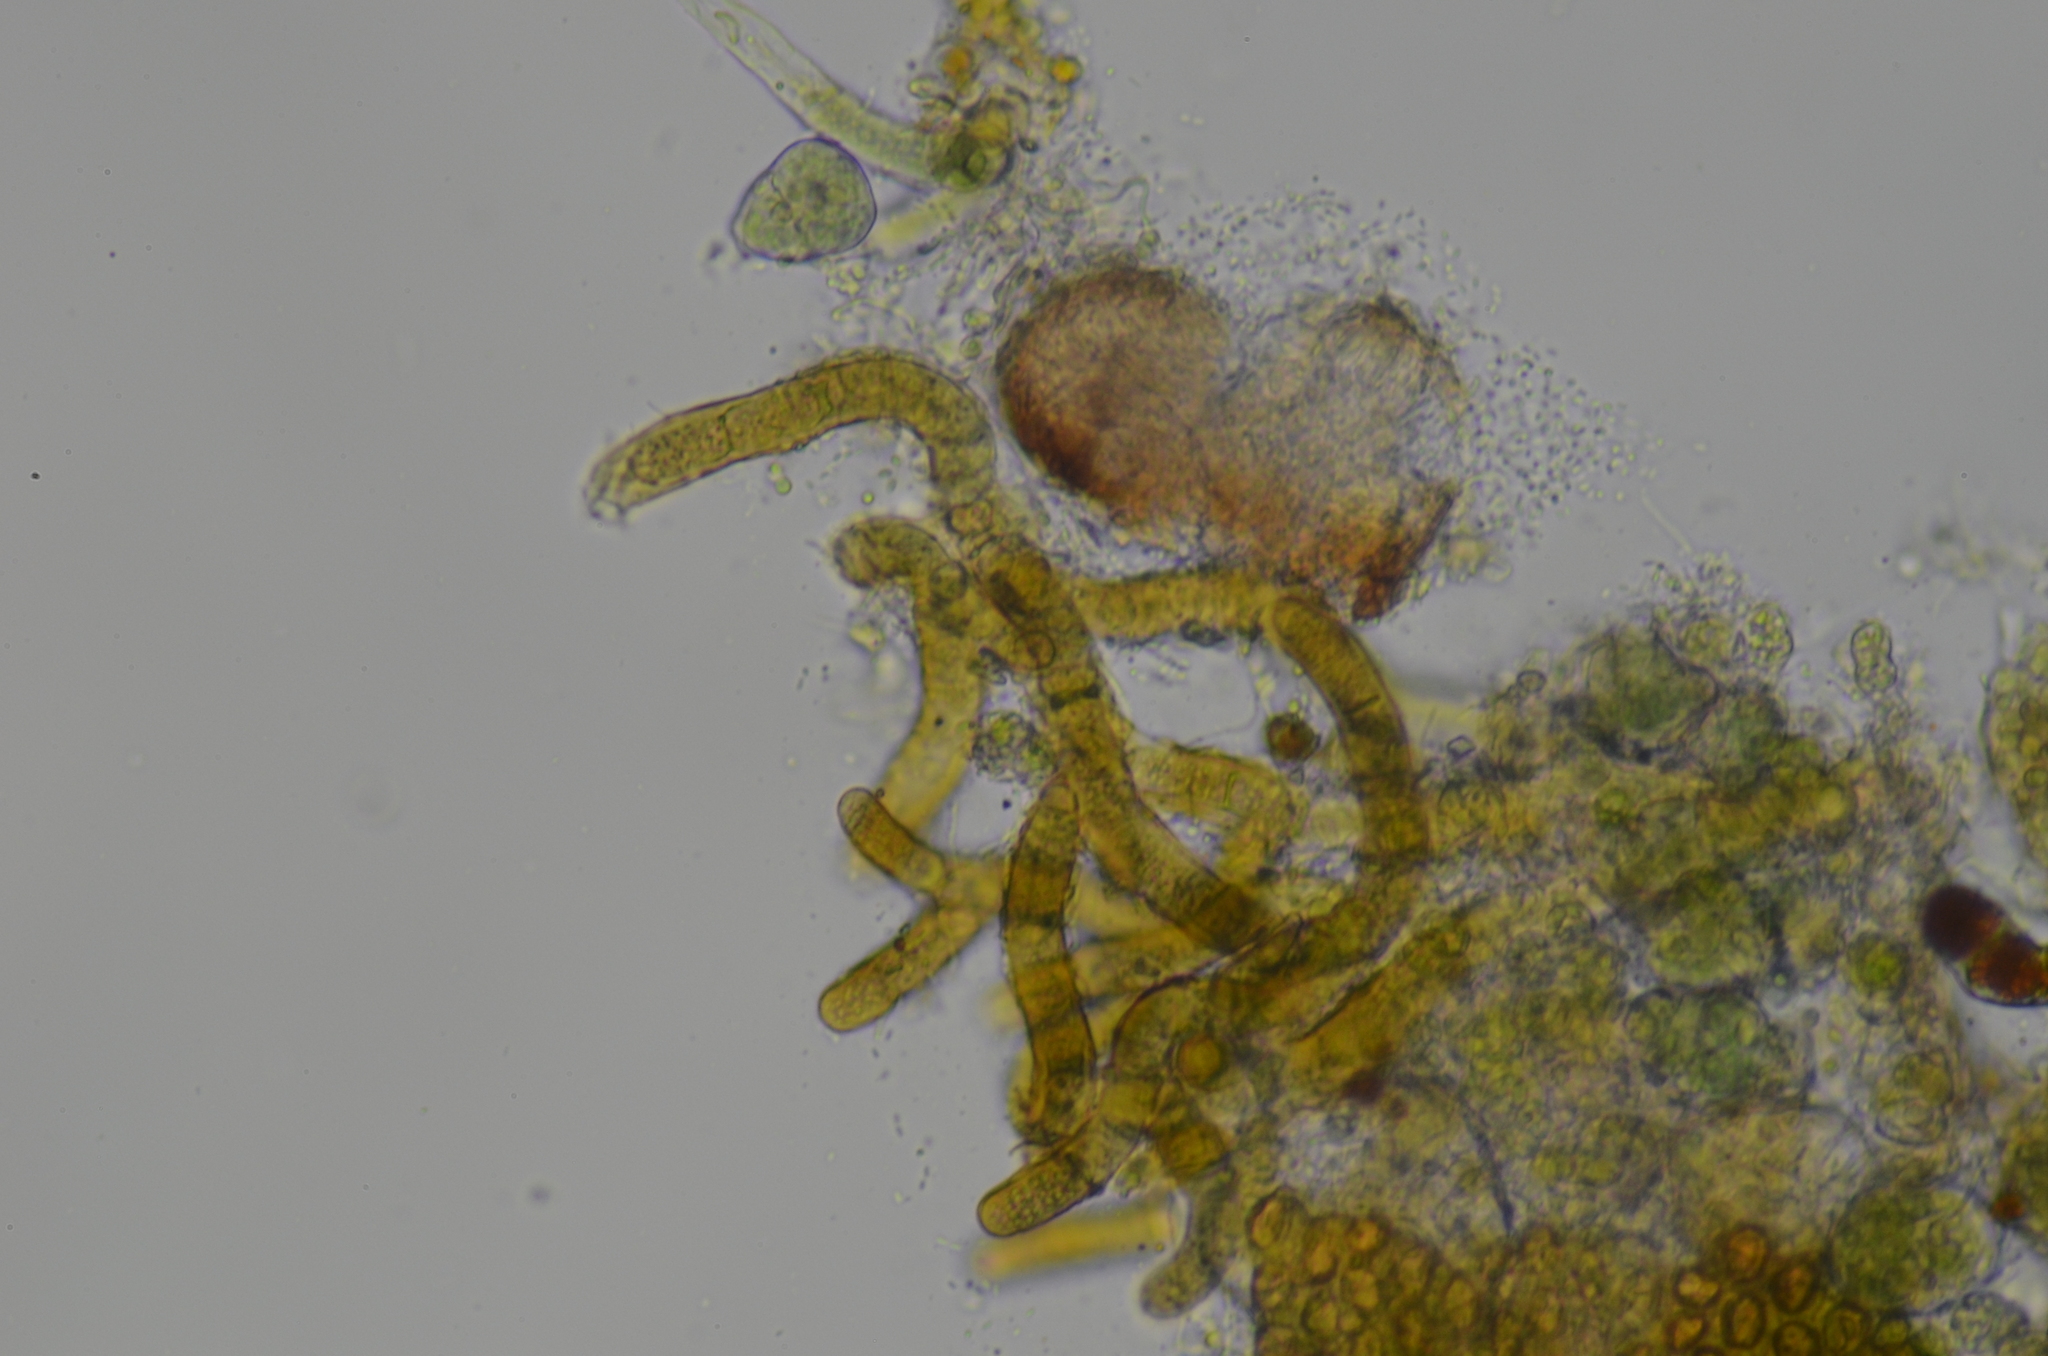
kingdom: Bacteria
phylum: Cyanobacteria
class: Cyanobacteriia
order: Cyanobacteriales
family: Nostocaceae
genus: Hassallia
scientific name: Hassallia byssoidea
